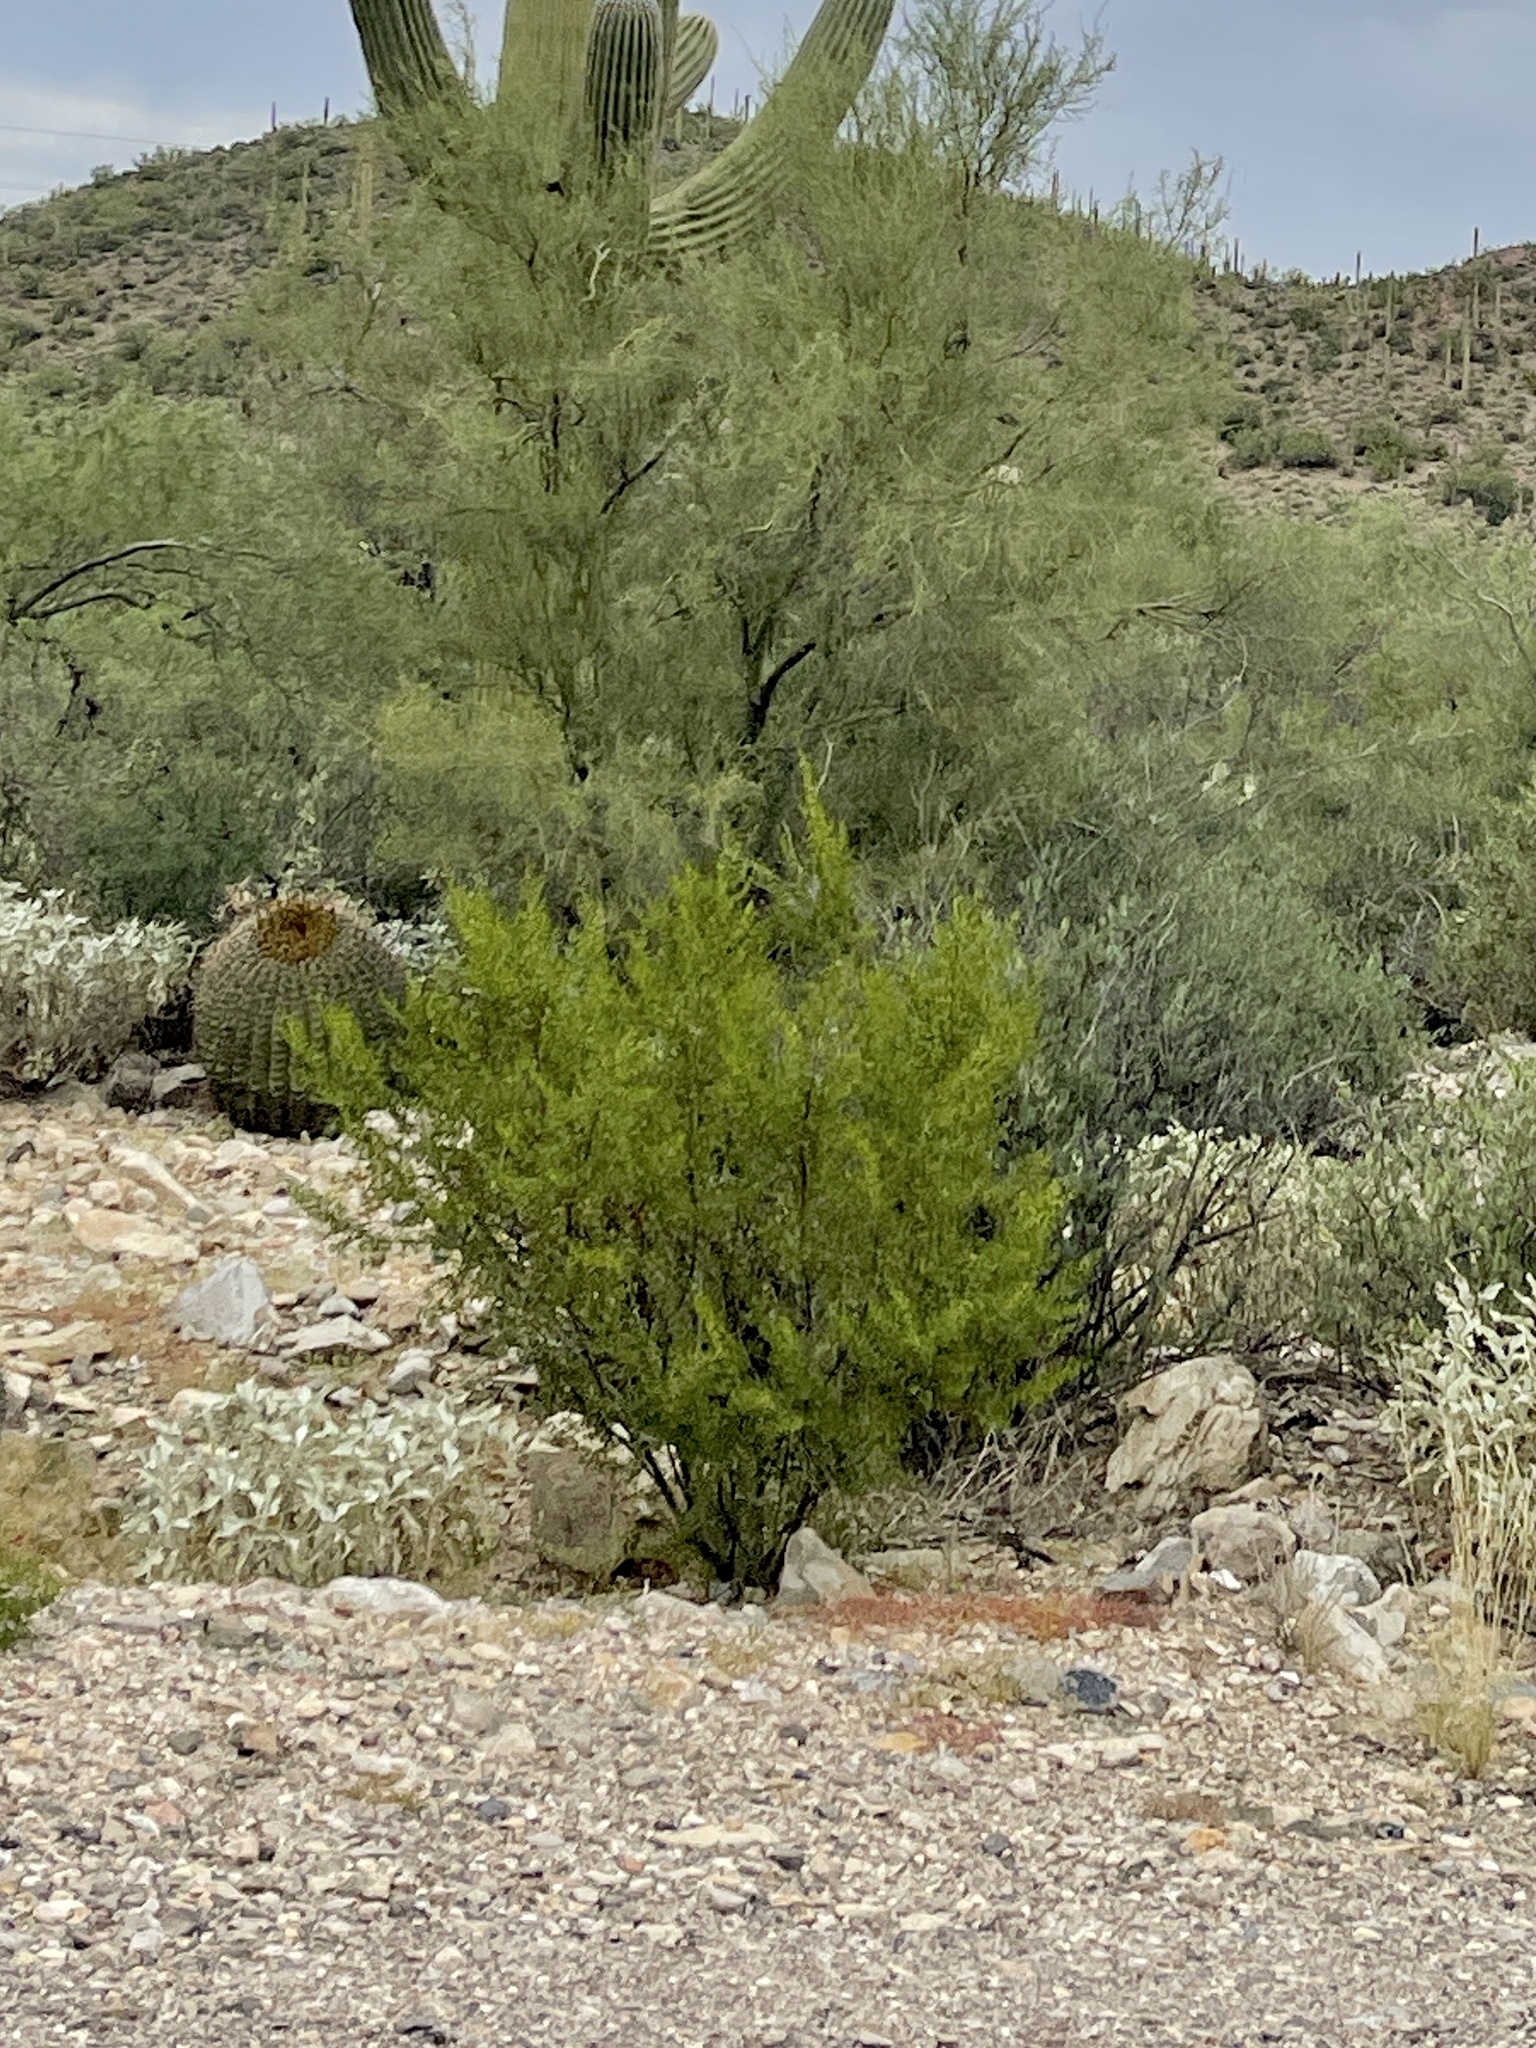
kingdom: Plantae
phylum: Tracheophyta
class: Magnoliopsida
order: Zygophyllales
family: Zygophyllaceae
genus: Larrea
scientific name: Larrea tridentata
